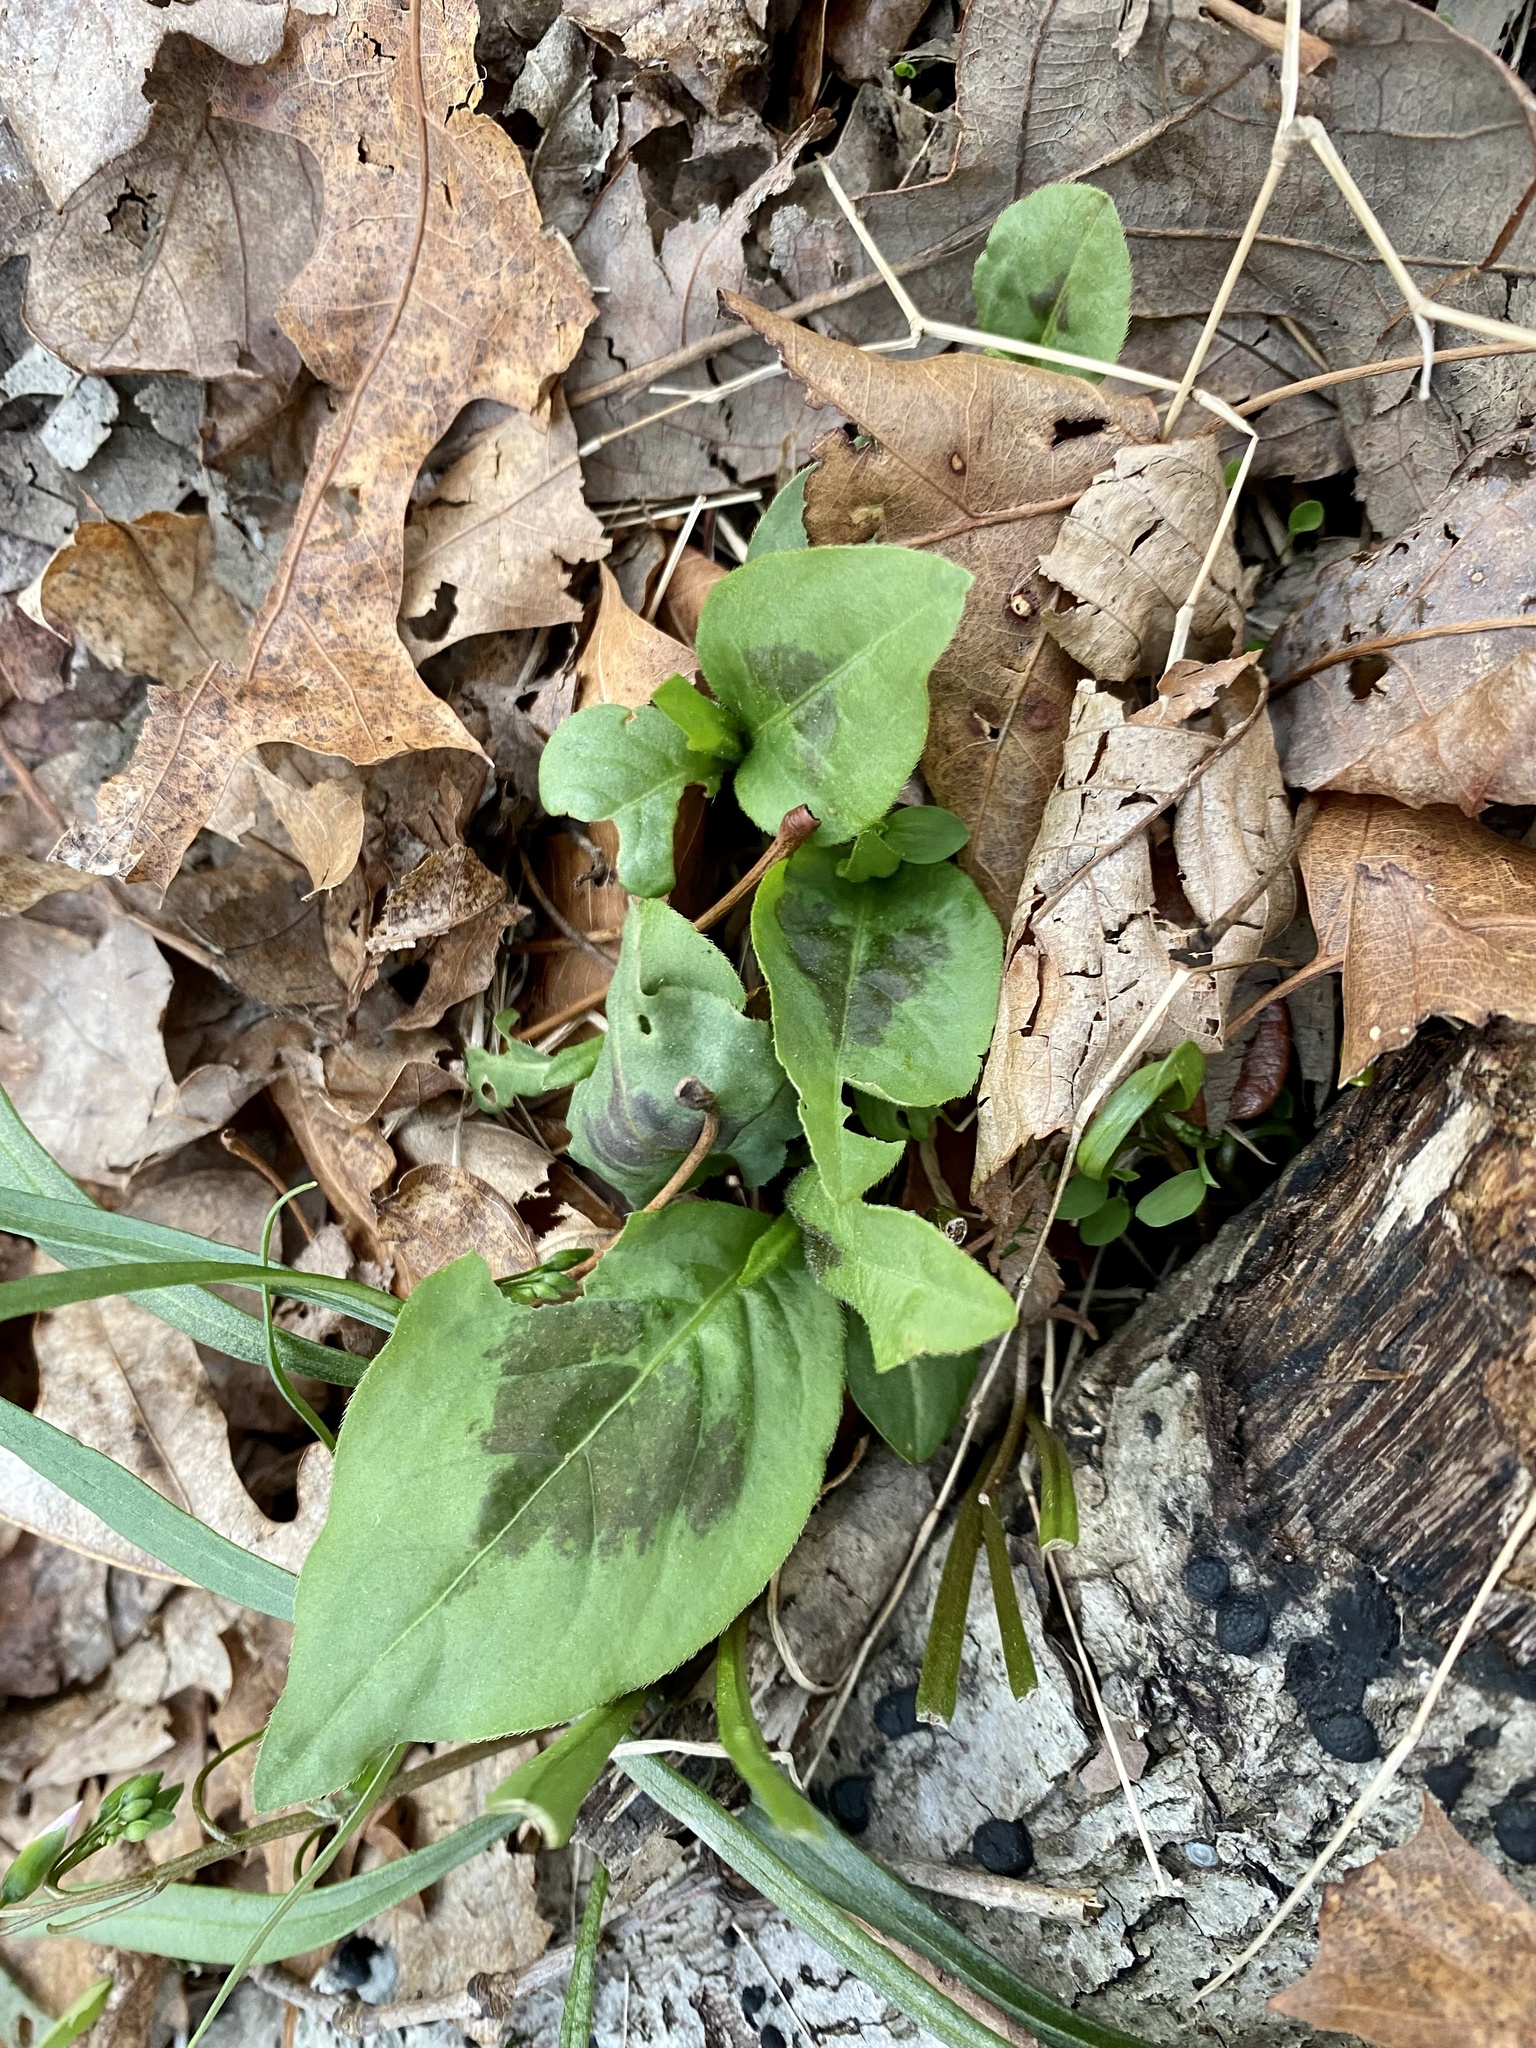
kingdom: Plantae
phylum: Tracheophyta
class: Magnoliopsida
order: Caryophyllales
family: Polygonaceae
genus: Persicaria
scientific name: Persicaria virginiana
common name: Jumpseed
